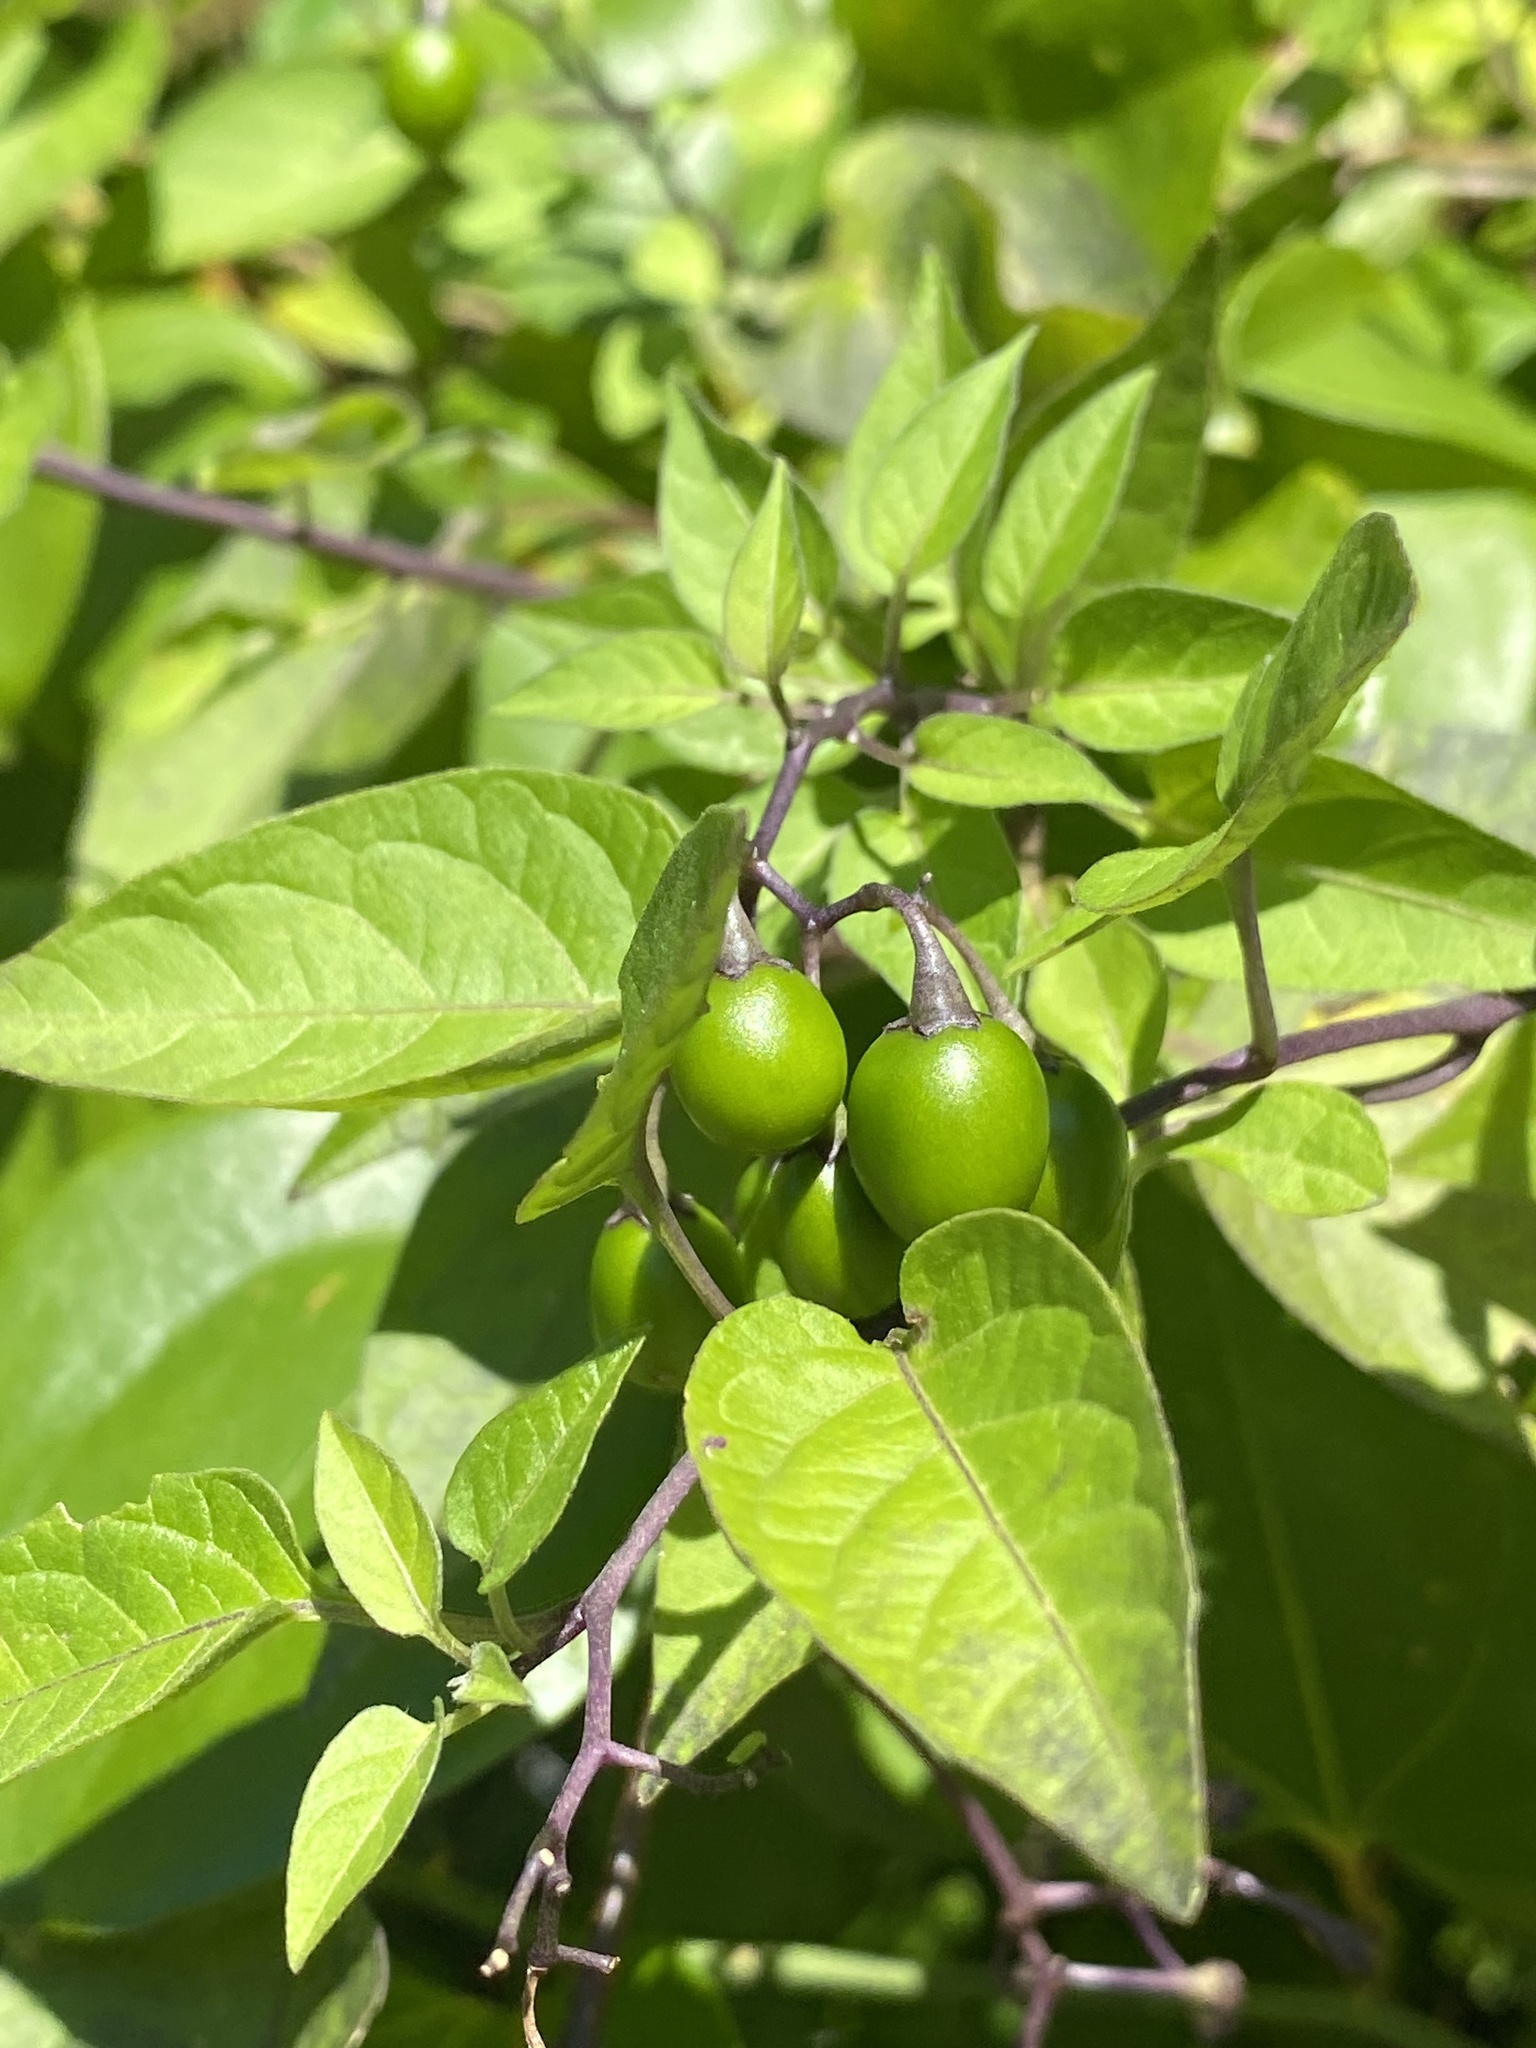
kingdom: Plantae
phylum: Tracheophyta
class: Magnoliopsida
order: Solanales
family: Solanaceae
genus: Solanum
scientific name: Solanum dulcamara
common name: Climbing nightshade
